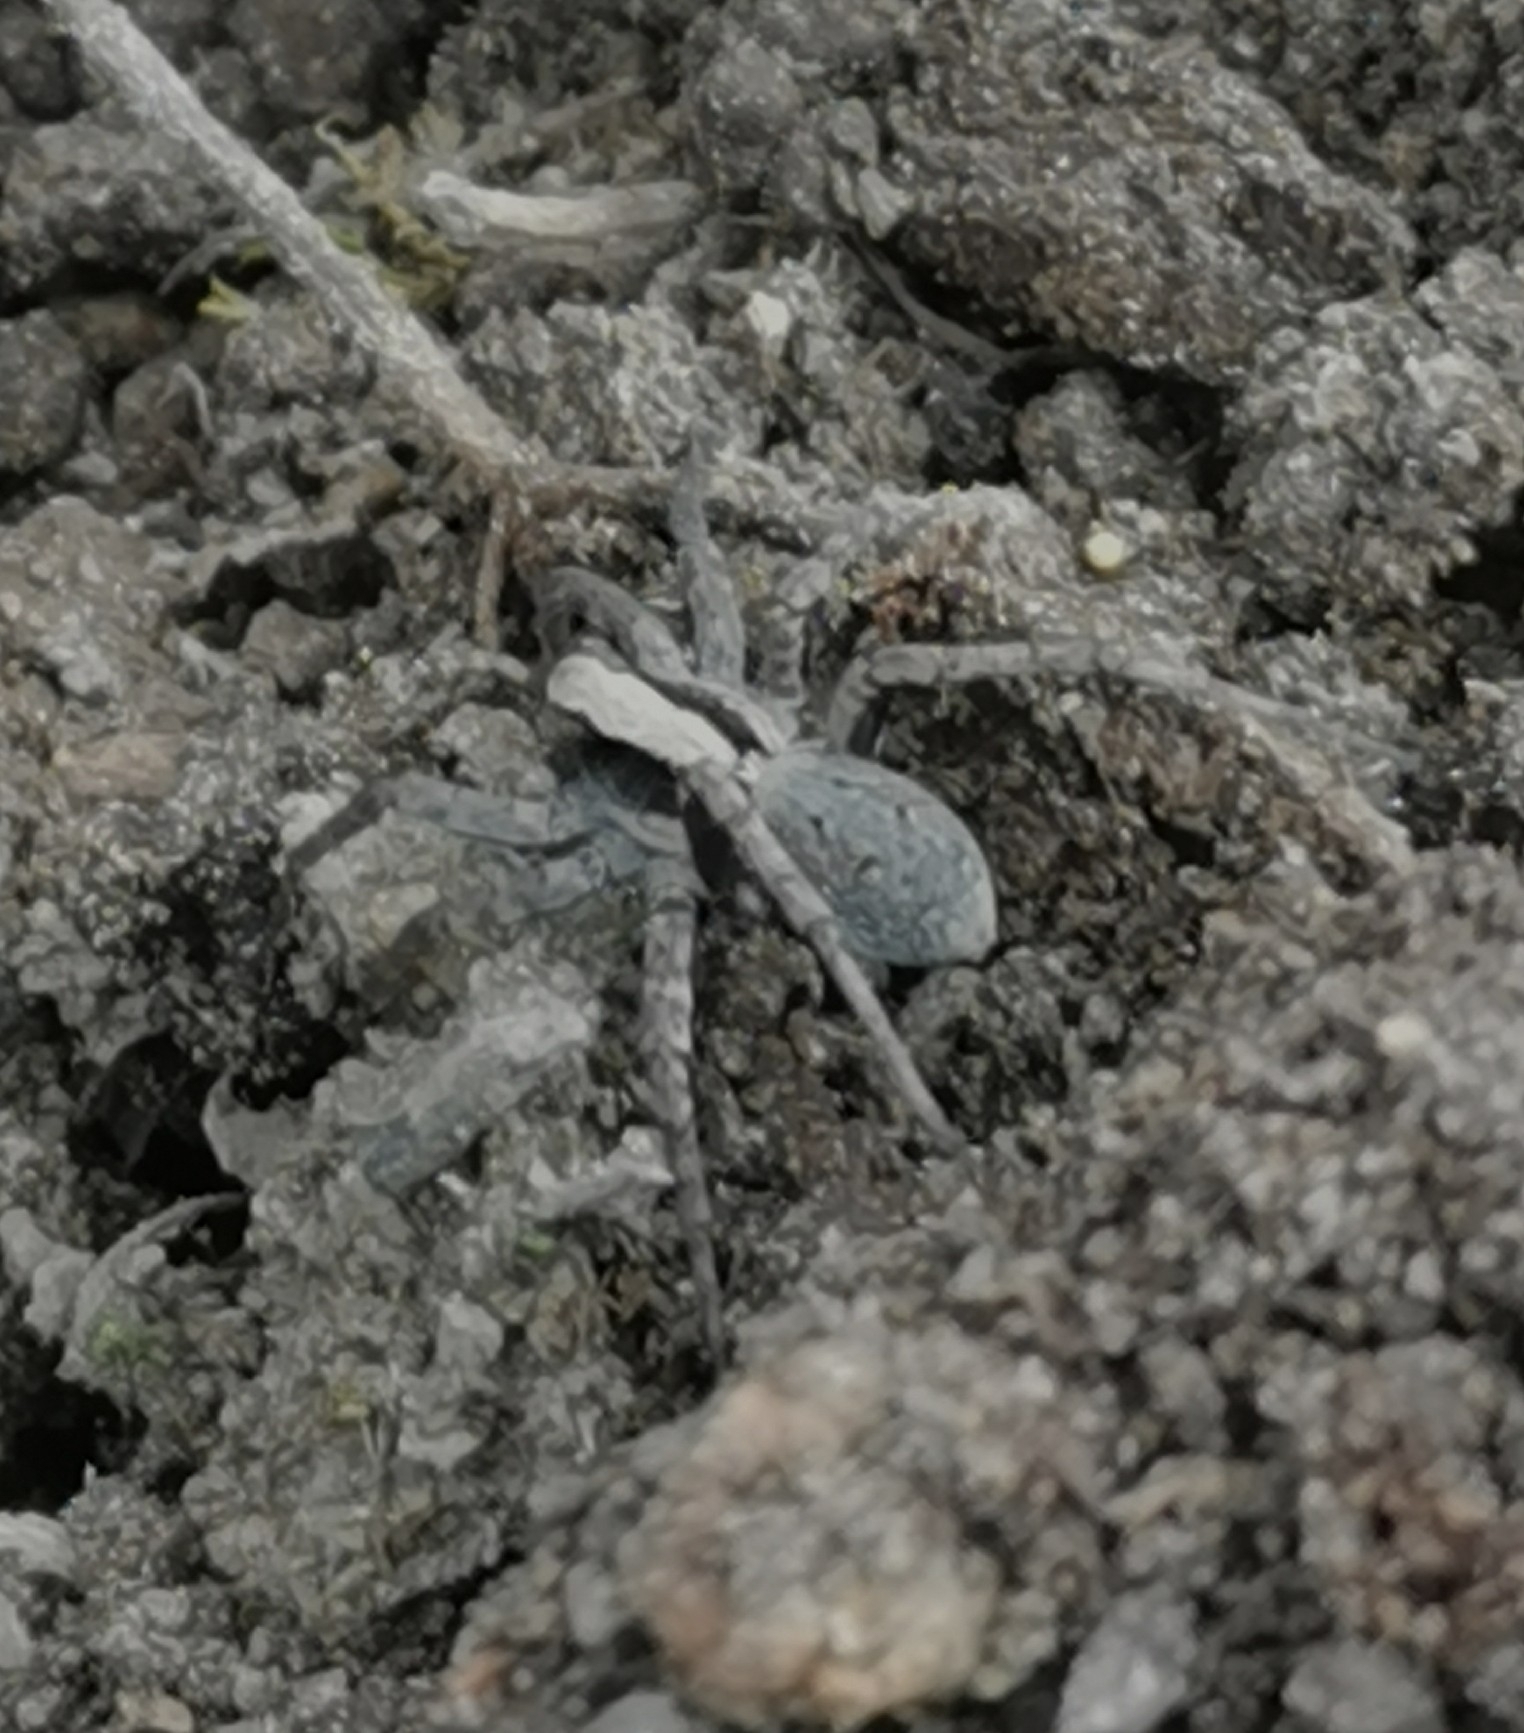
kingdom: Animalia
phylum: Arthropoda
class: Arachnida
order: Araneae
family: Lycosidae
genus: Xerolycosa
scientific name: Xerolycosa nemoralis
